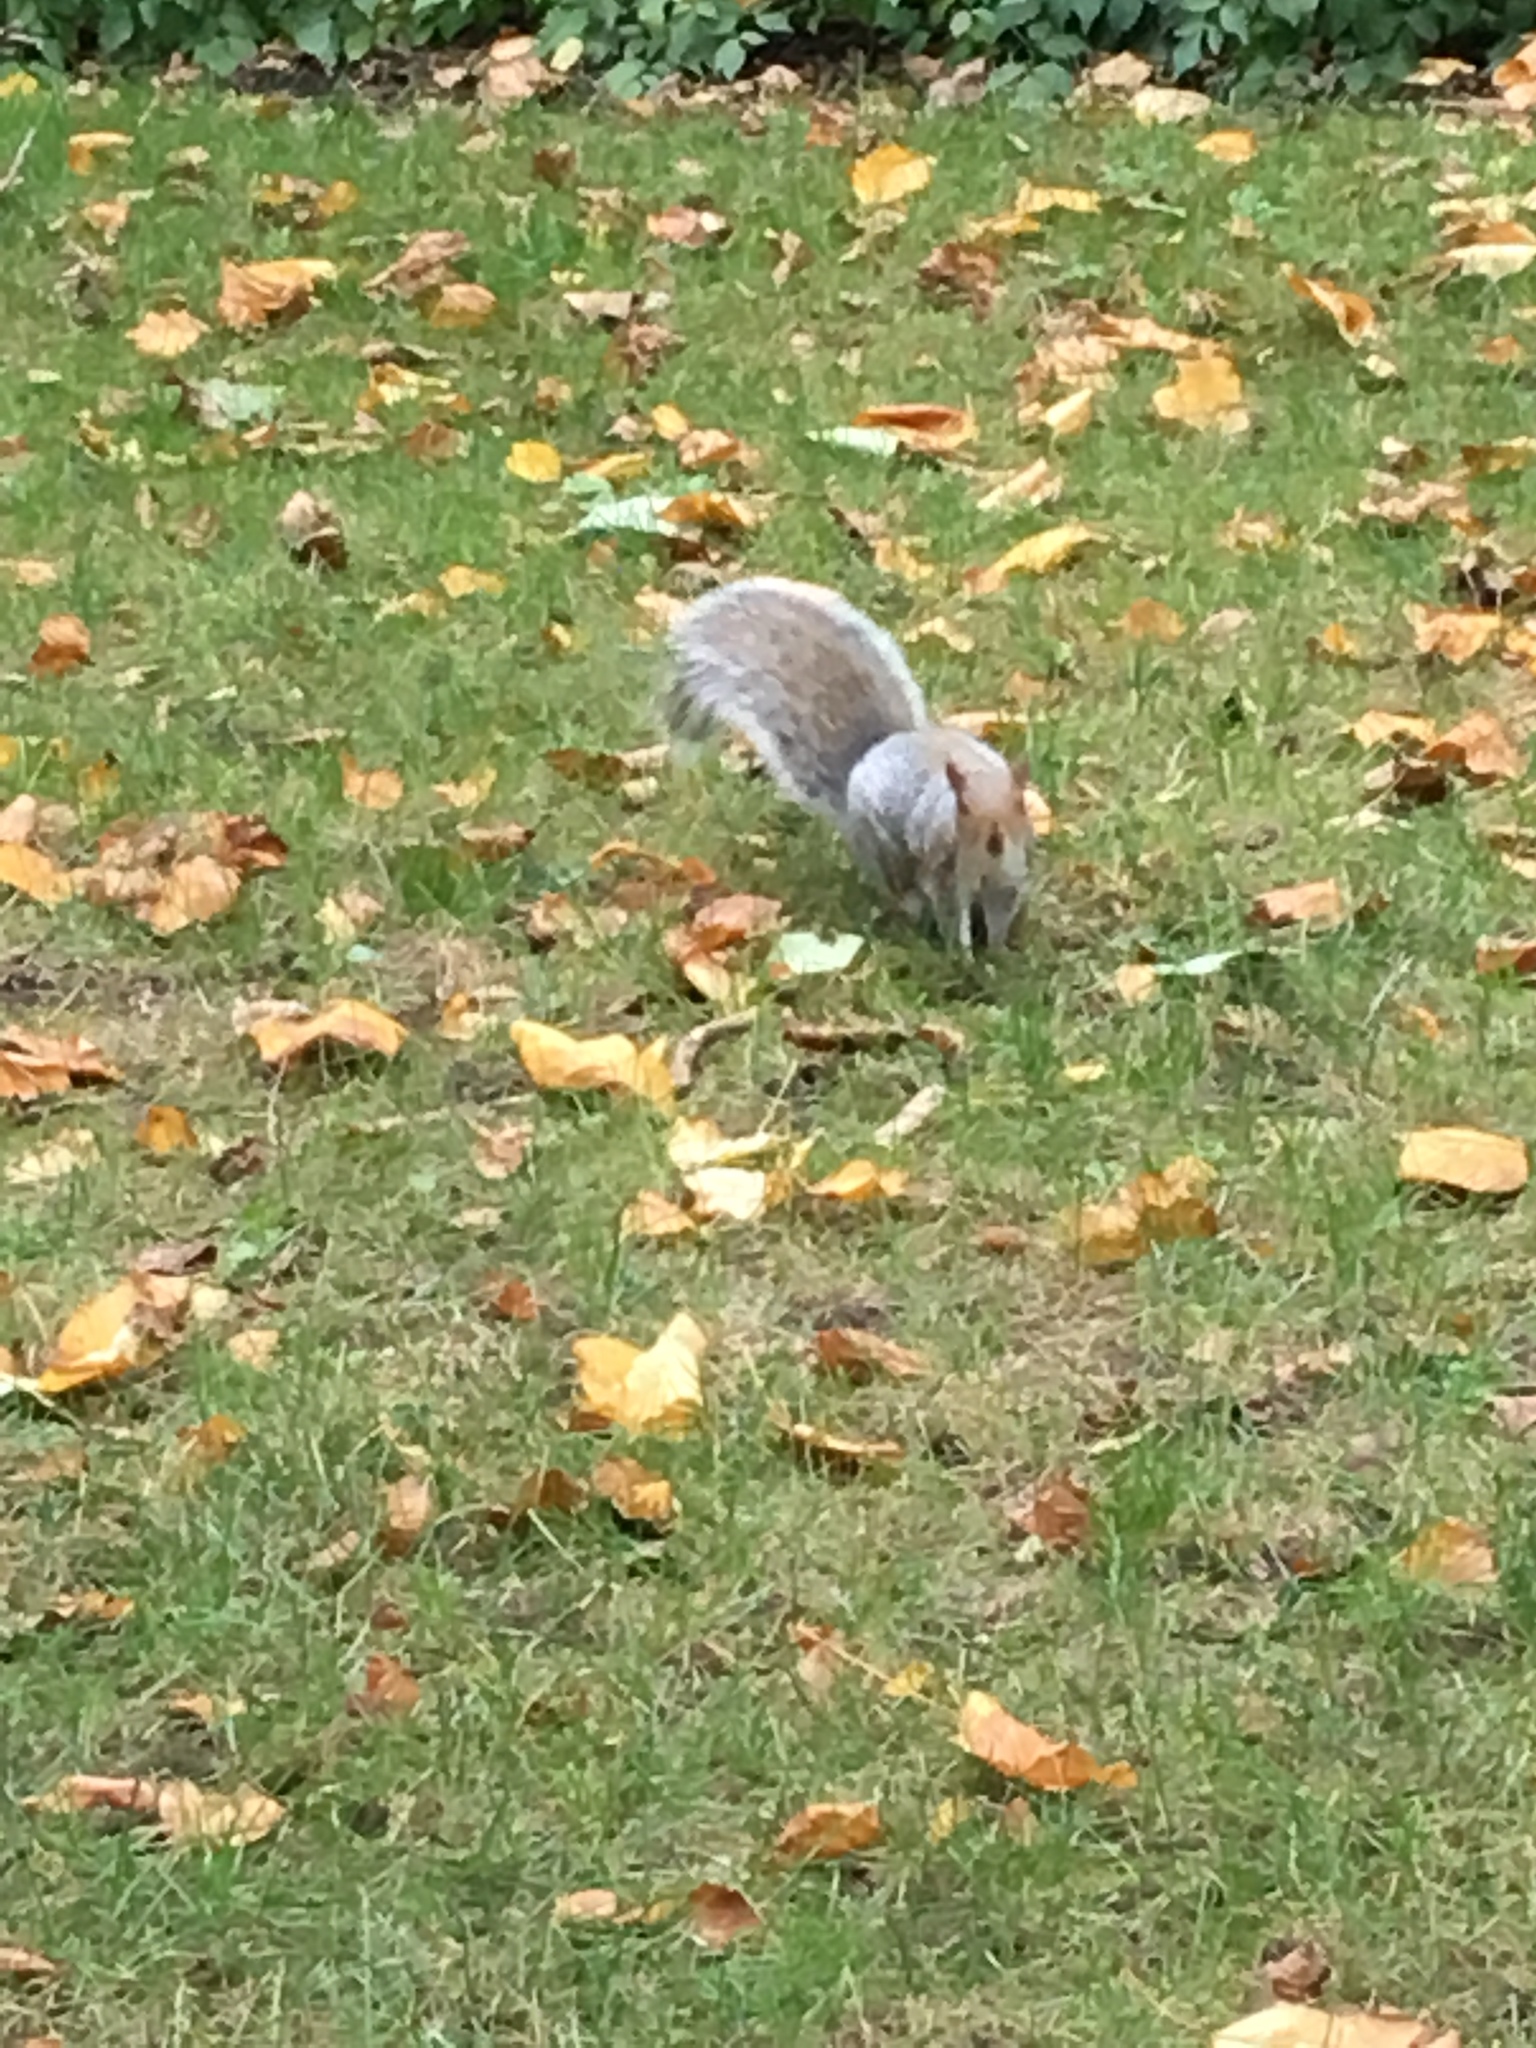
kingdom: Animalia
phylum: Chordata
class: Mammalia
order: Rodentia
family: Sciuridae
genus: Sciurus
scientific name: Sciurus carolinensis
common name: Eastern gray squirrel
